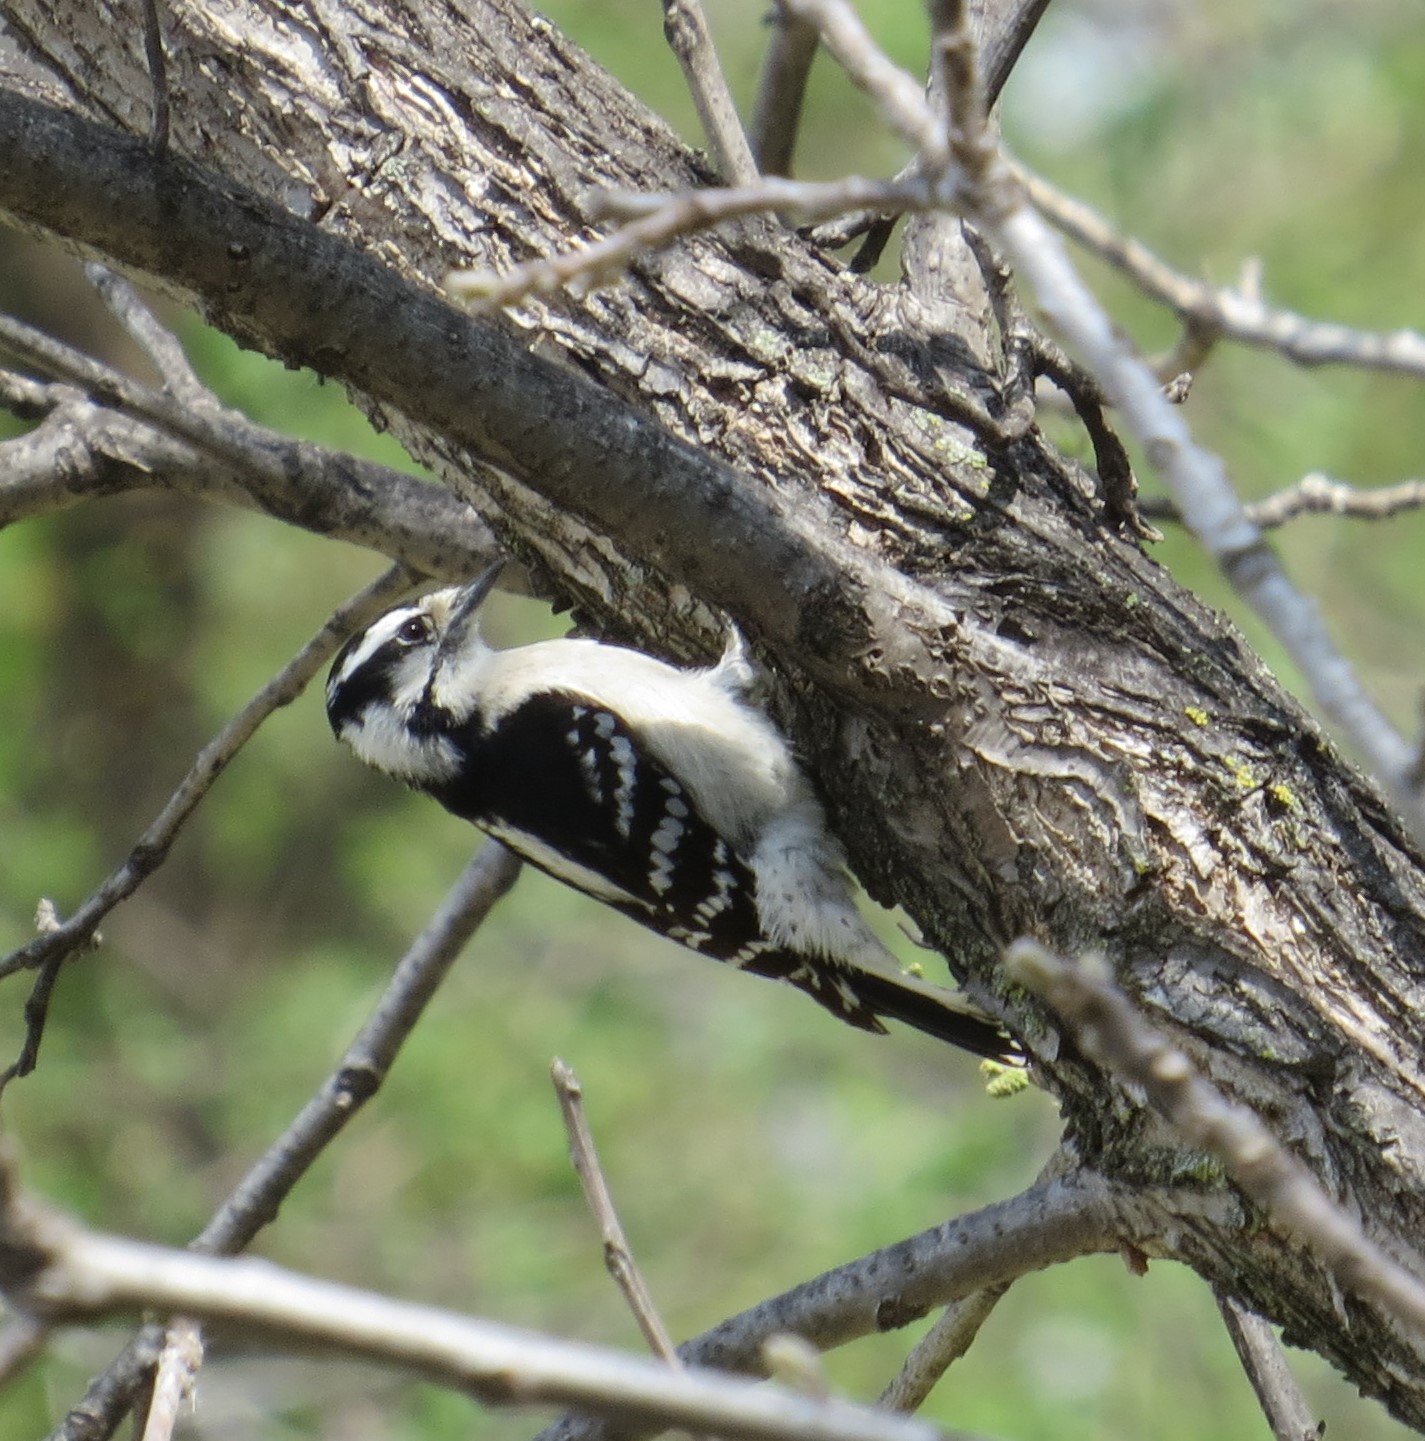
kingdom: Animalia
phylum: Chordata
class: Aves
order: Piciformes
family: Picidae
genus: Dryobates
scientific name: Dryobates pubescens
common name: Downy woodpecker
